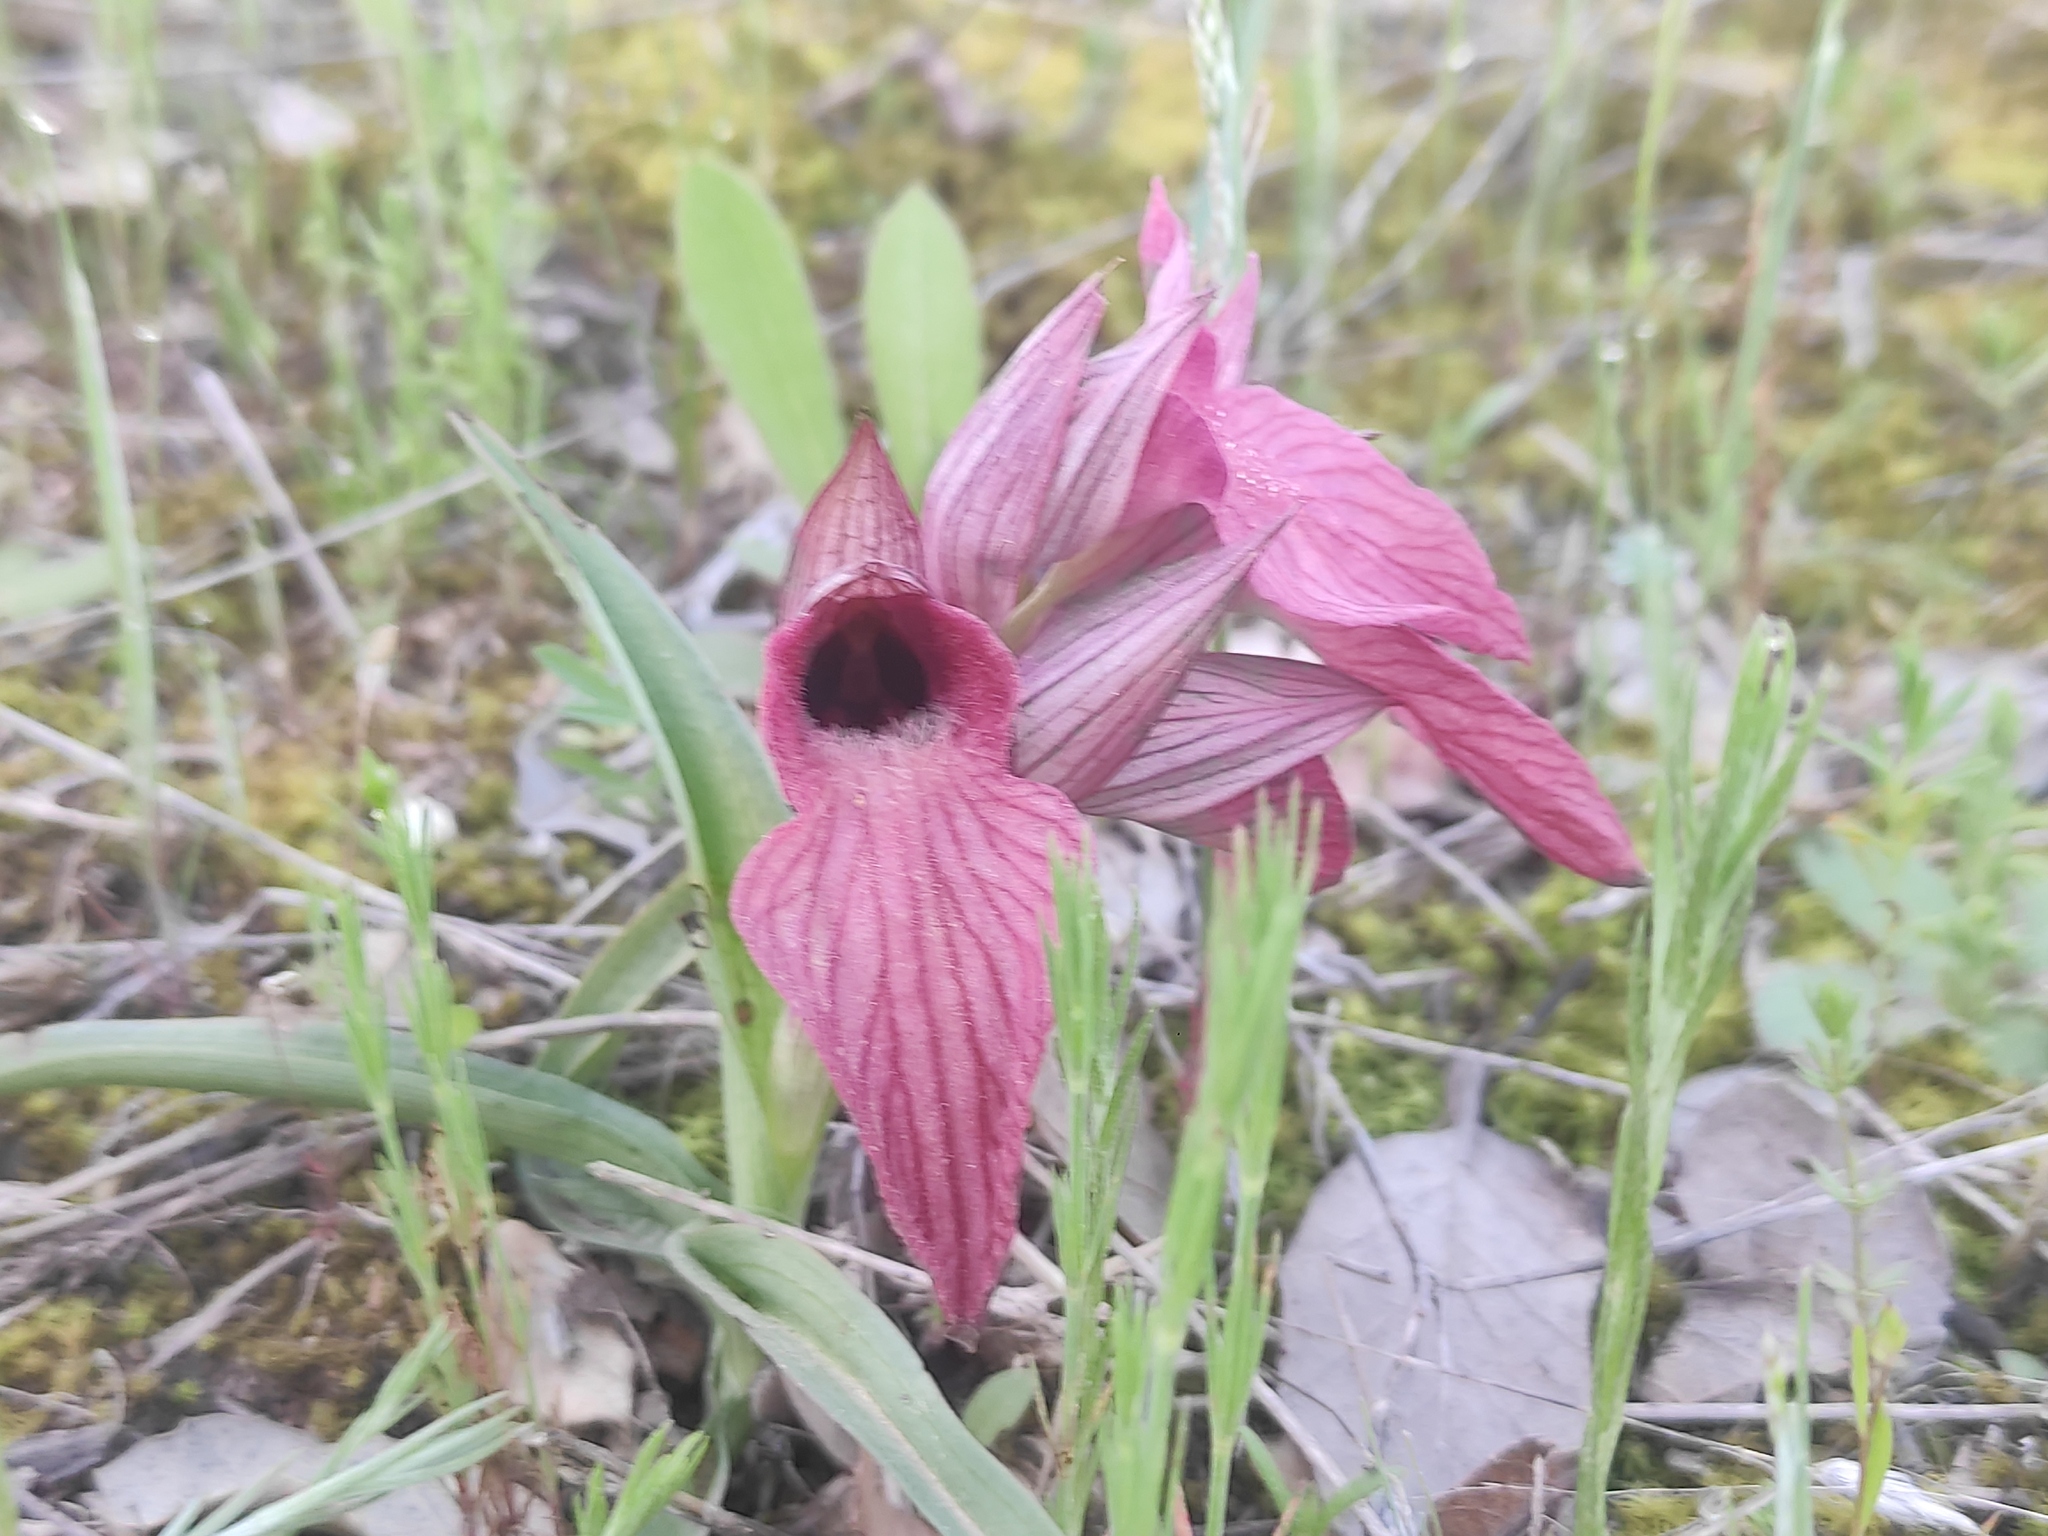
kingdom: Plantae
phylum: Tracheophyta
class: Liliopsida
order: Asparagales
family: Orchidaceae
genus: Serapias
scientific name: Serapias neglecta
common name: Neglected serapias
